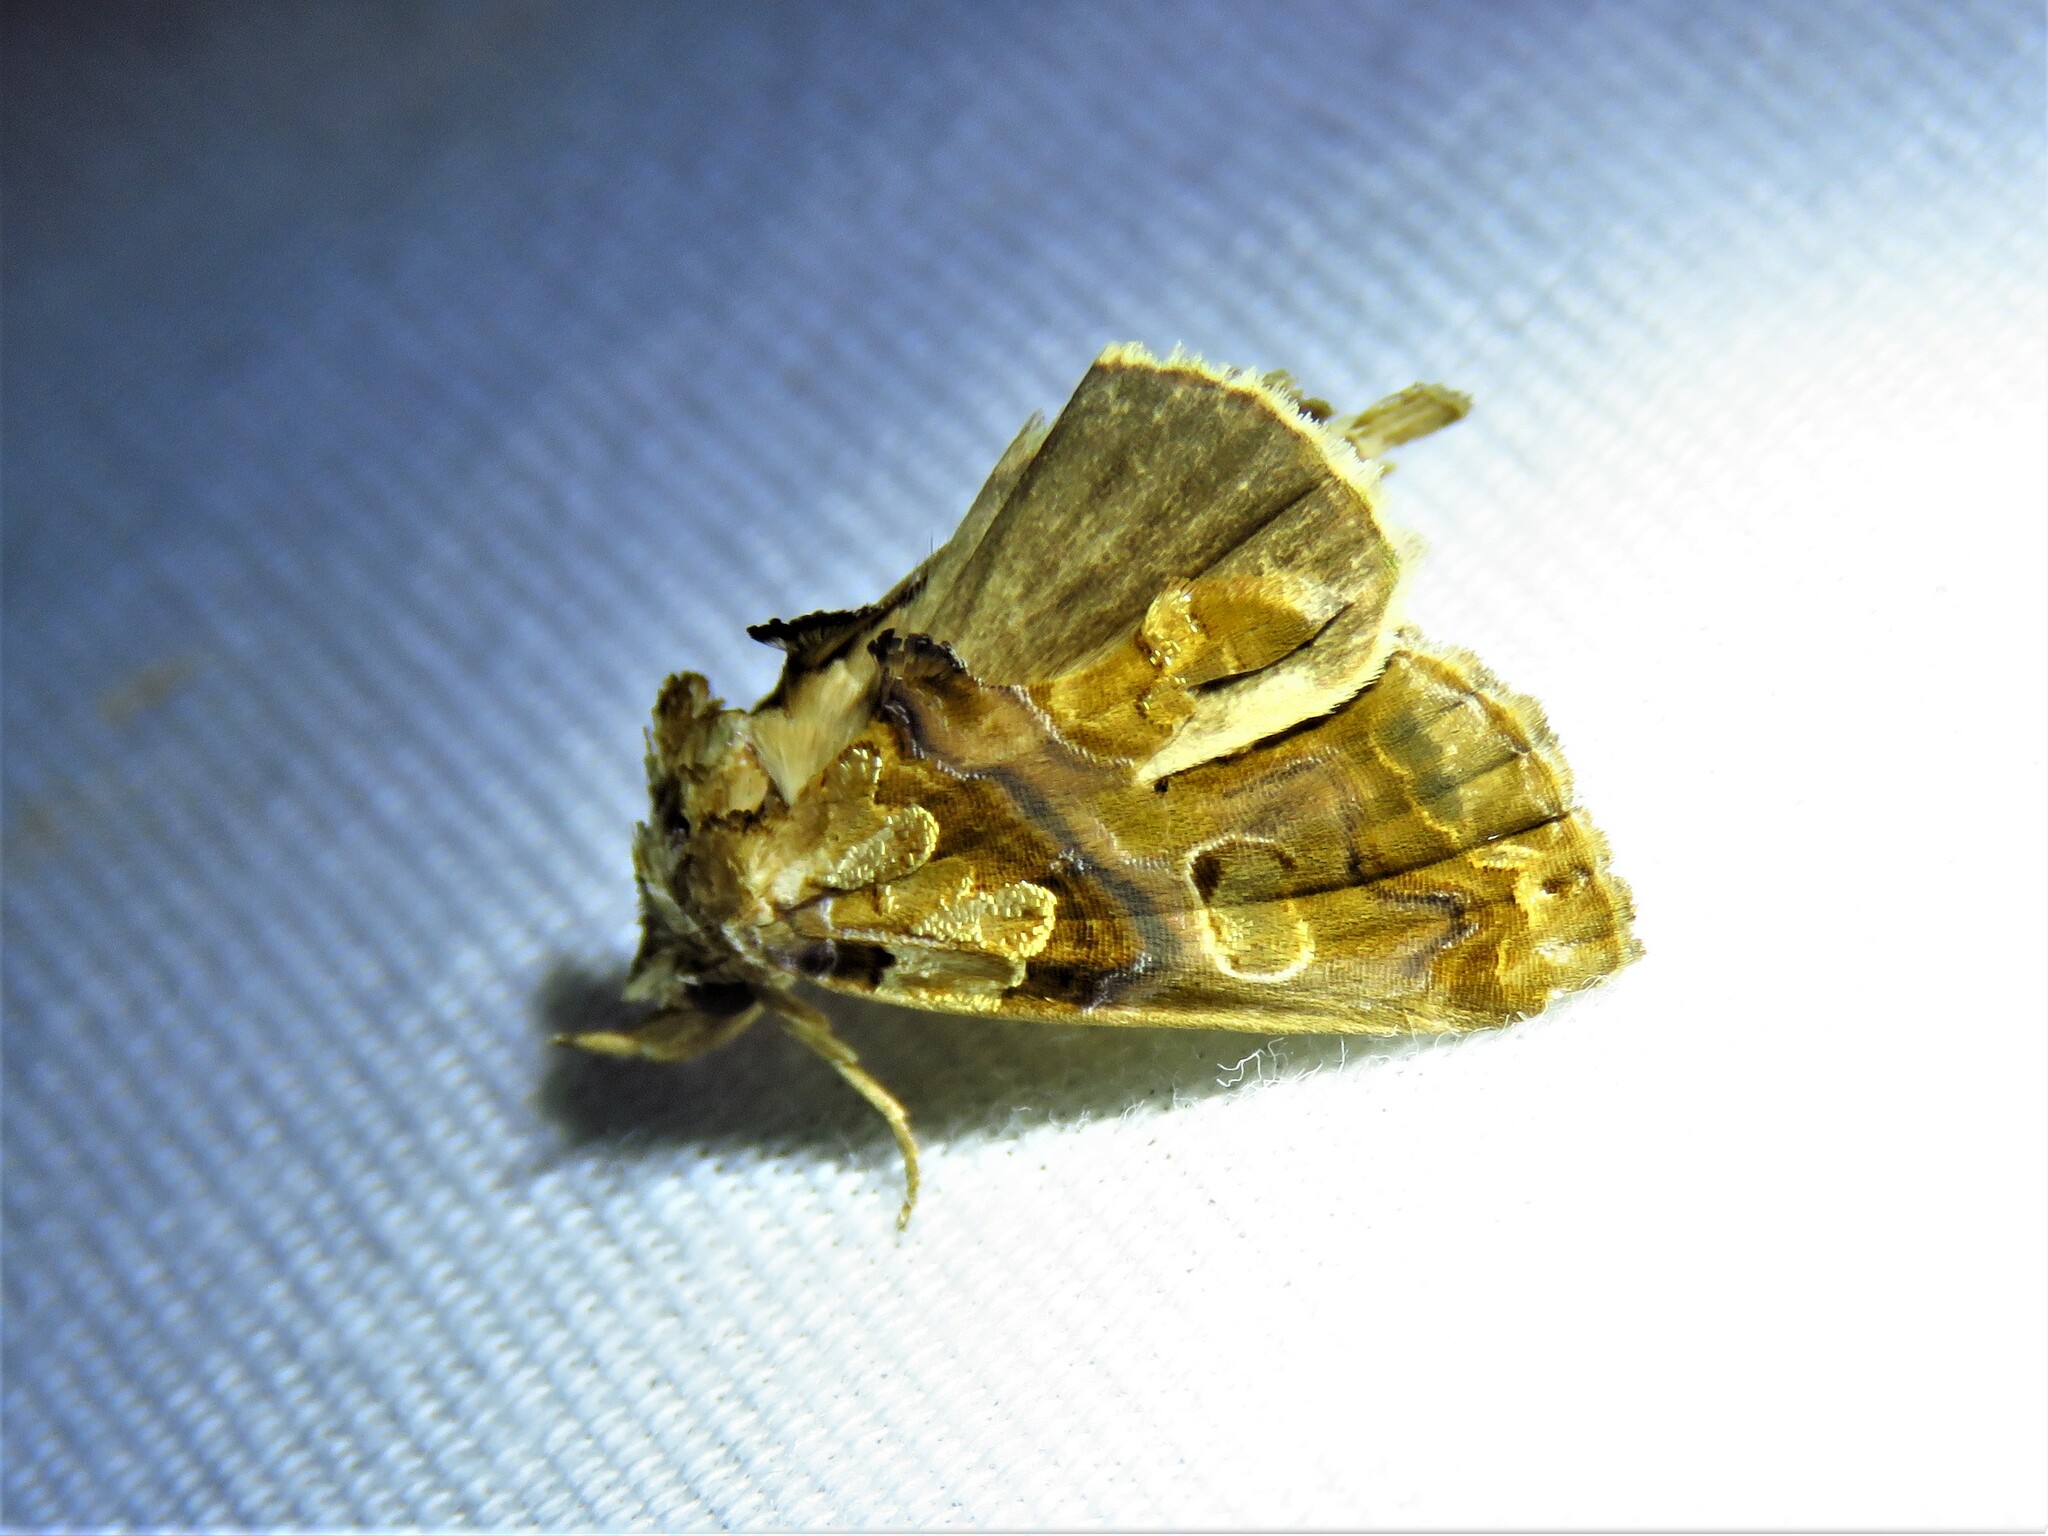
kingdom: Animalia
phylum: Arthropoda
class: Insecta
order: Lepidoptera
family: Erebidae
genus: Plusiodonta
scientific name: Plusiodonta compressipalpis
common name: Moonseed moth
